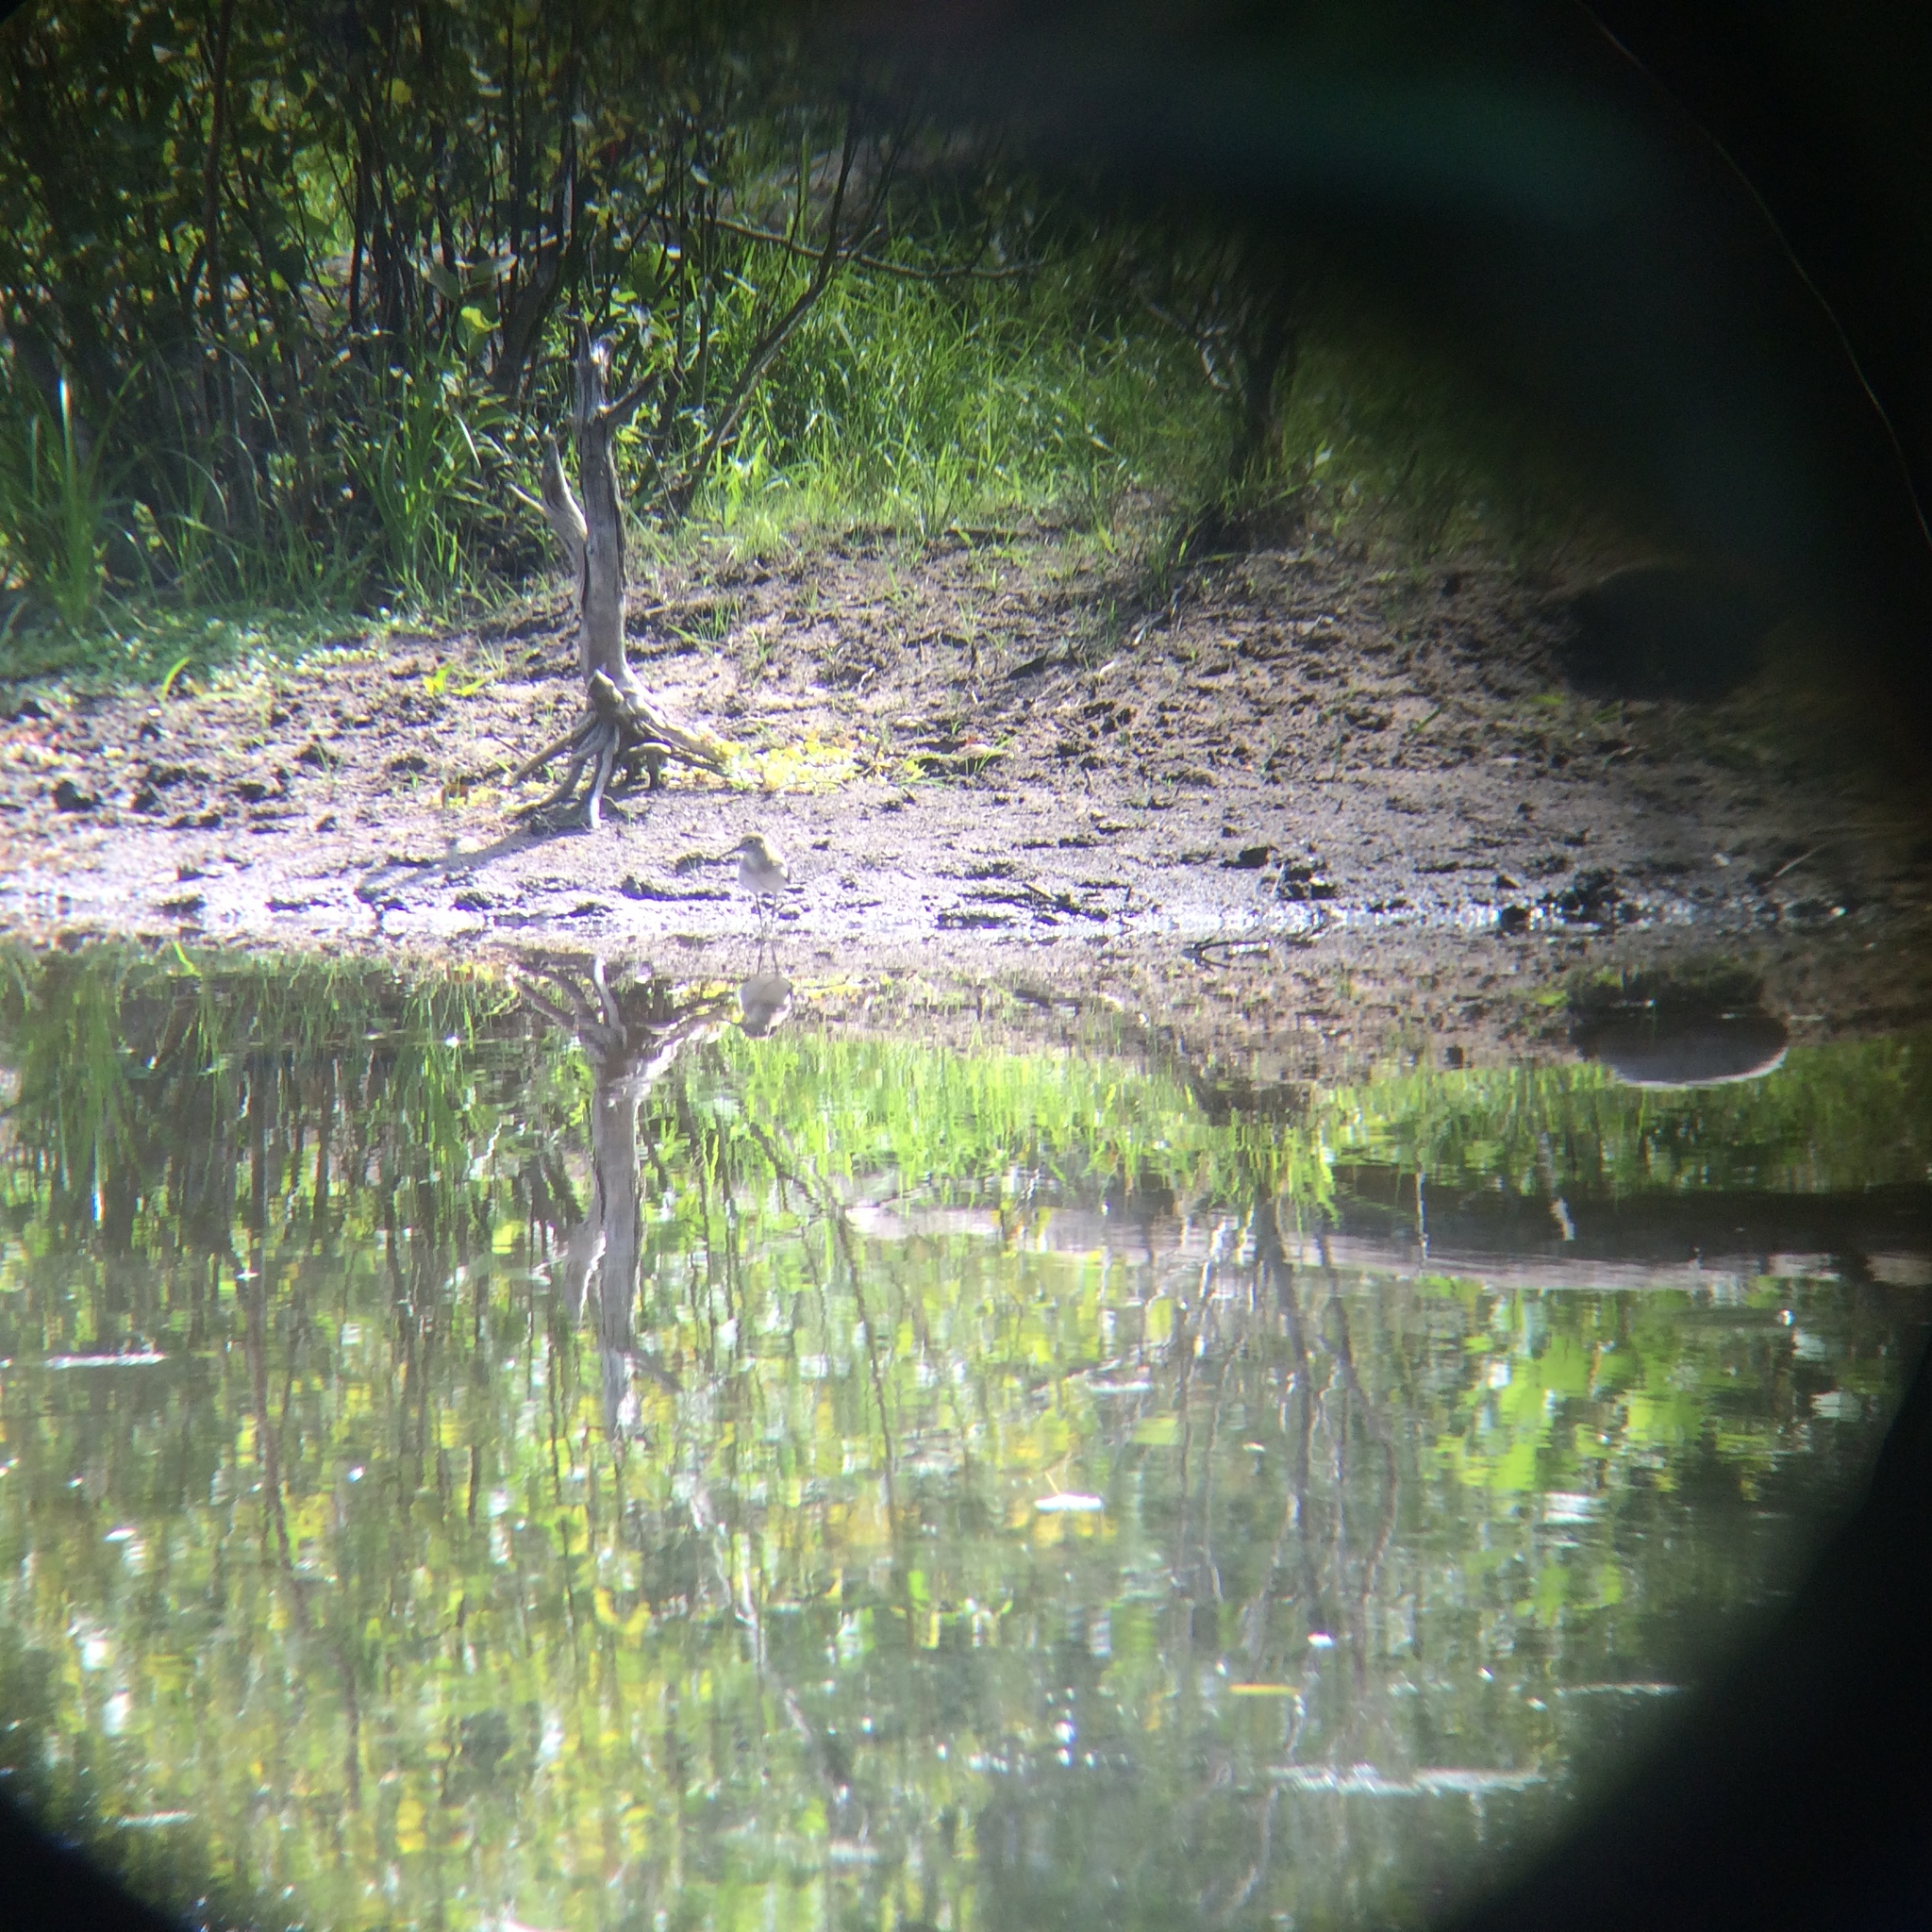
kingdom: Animalia
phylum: Chordata
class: Aves
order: Charadriiformes
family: Scolopacidae
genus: Tringa
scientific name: Tringa solitaria
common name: Solitary sandpiper
